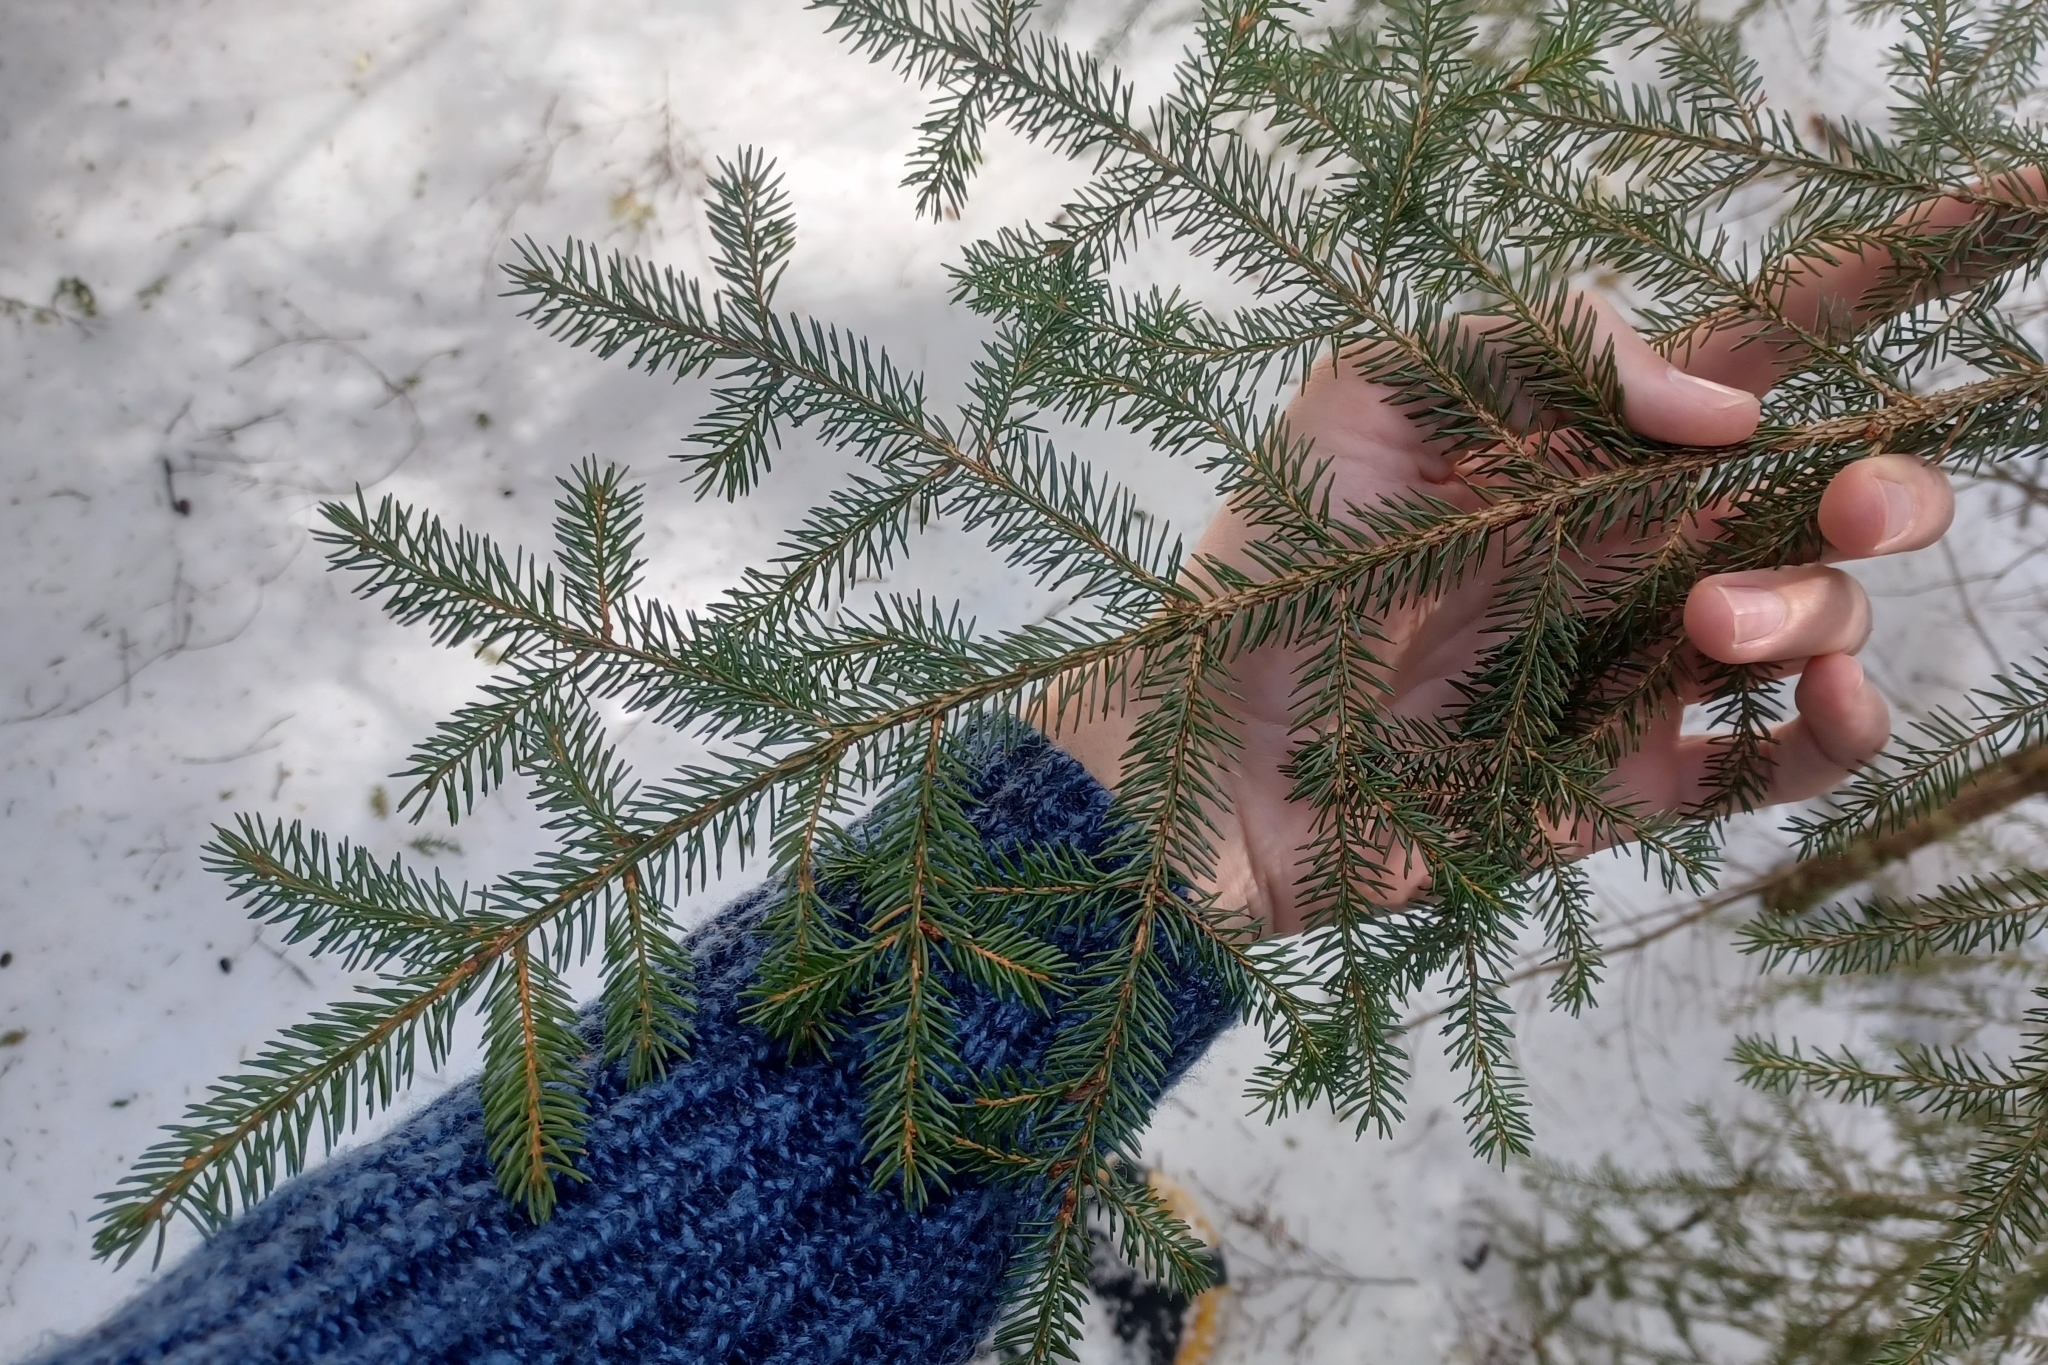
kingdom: Plantae
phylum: Tracheophyta
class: Pinopsida
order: Pinales
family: Pinaceae
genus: Picea
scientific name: Picea rubens
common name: Red spruce
